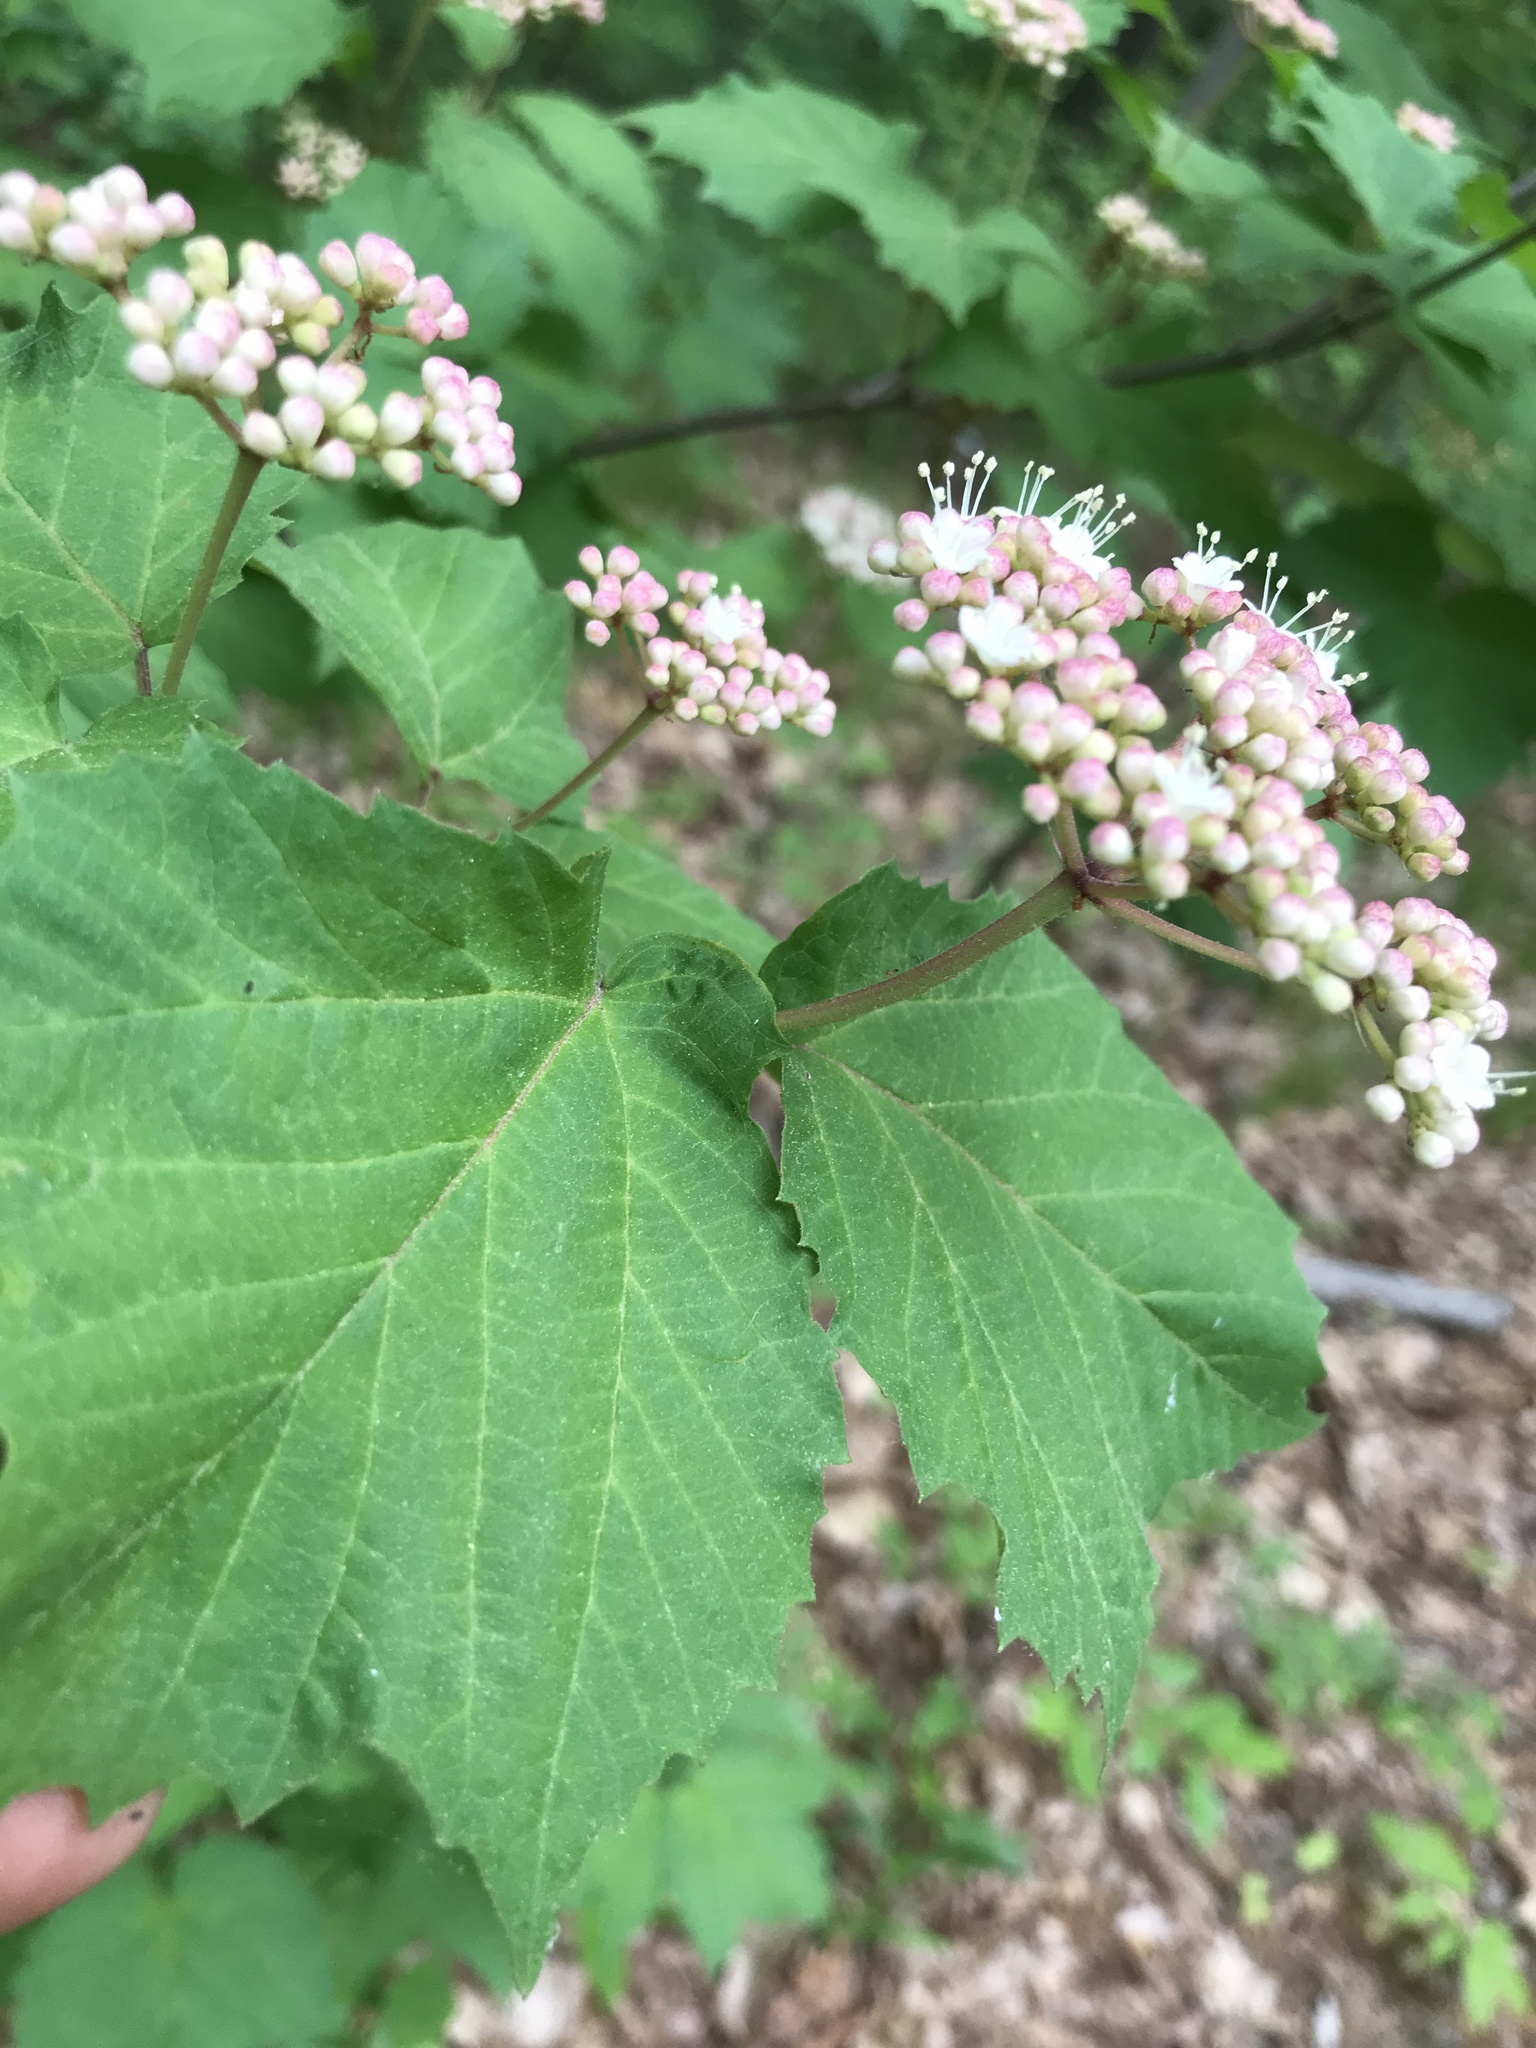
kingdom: Plantae
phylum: Tracheophyta
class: Magnoliopsida
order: Dipsacales
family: Viburnaceae
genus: Viburnum
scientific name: Viburnum acerifolium
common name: Dockmackie
